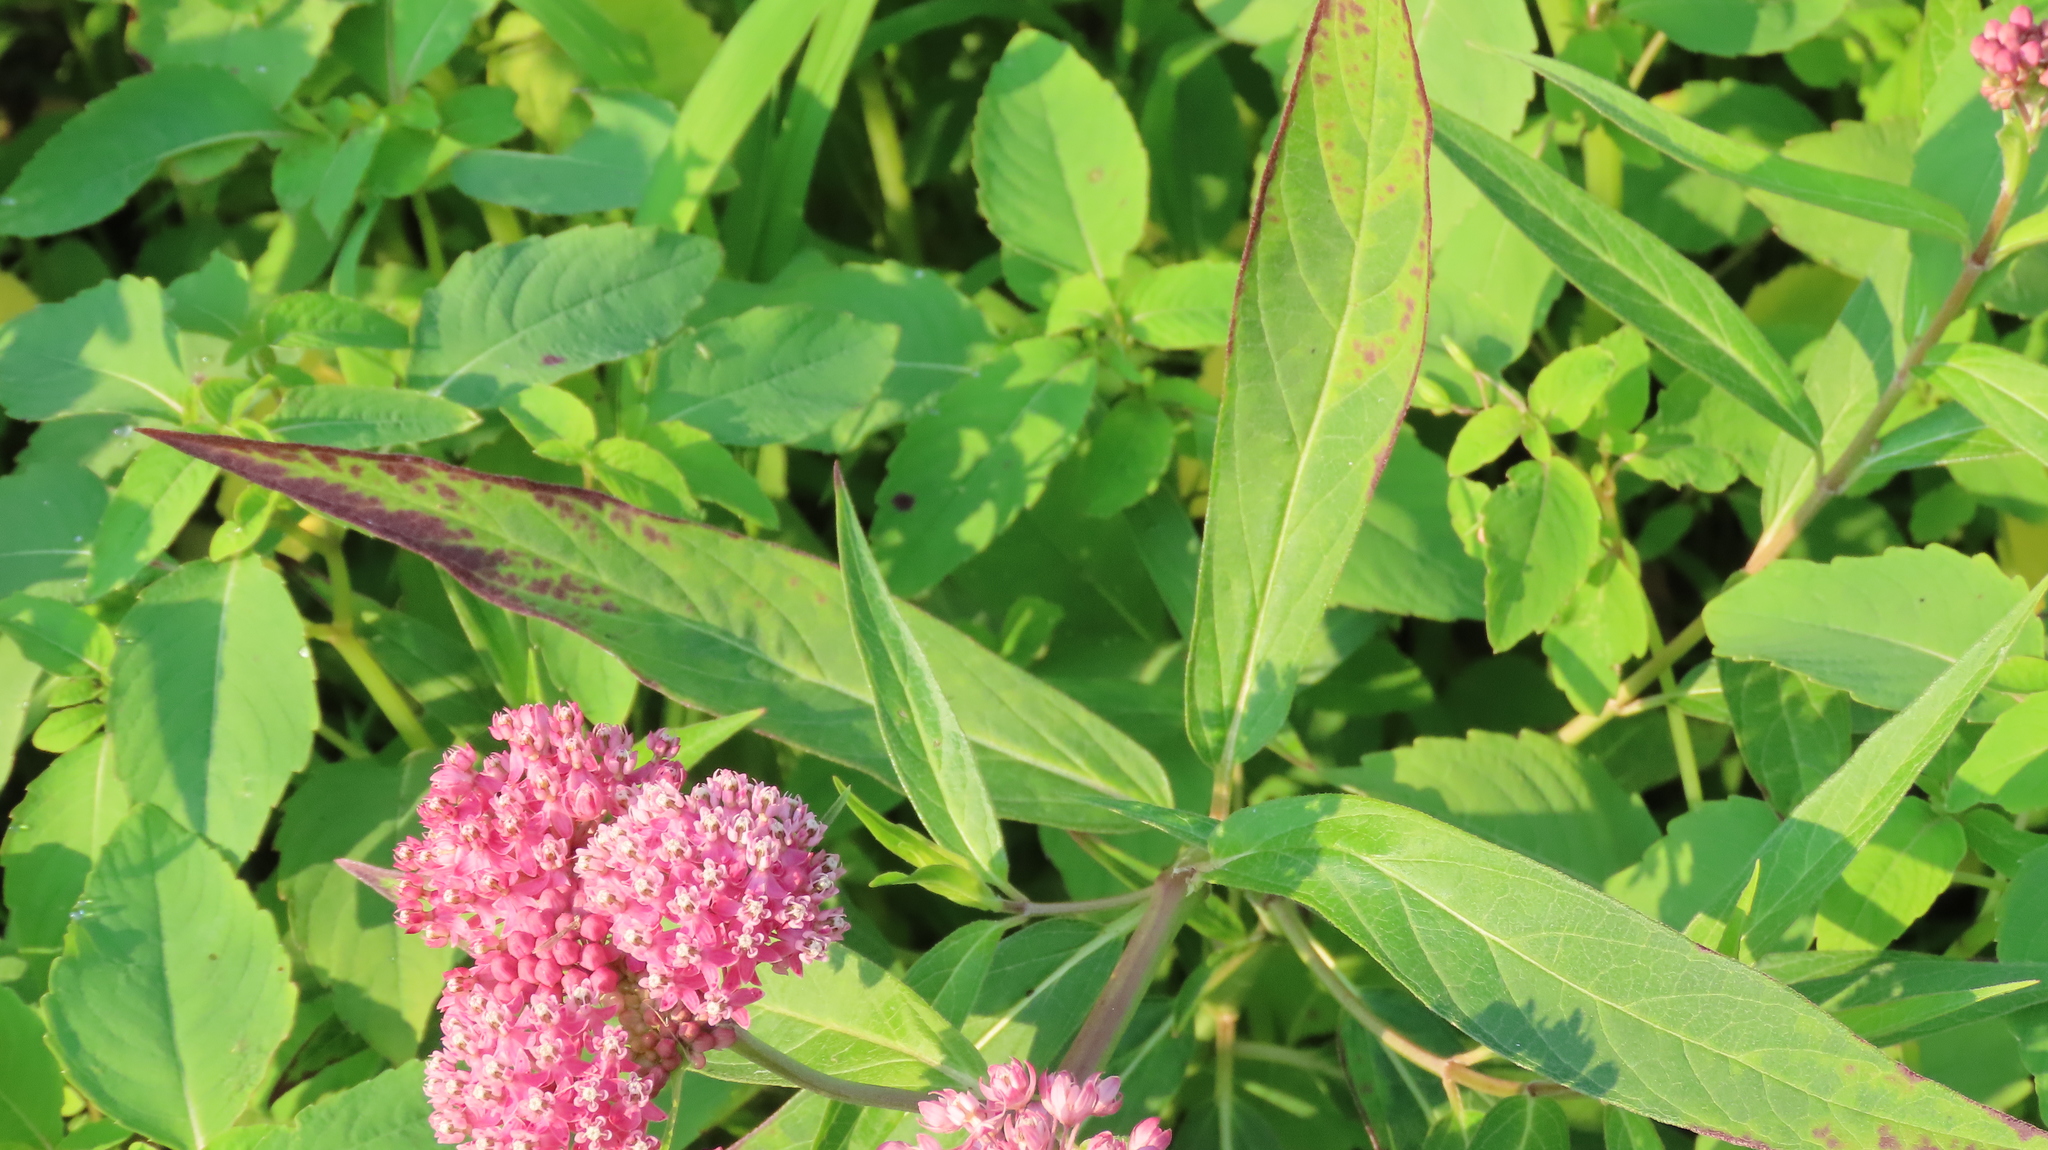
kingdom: Plantae
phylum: Tracheophyta
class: Magnoliopsida
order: Gentianales
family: Apocynaceae
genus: Asclepias
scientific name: Asclepias incarnata
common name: Swamp milkweed
